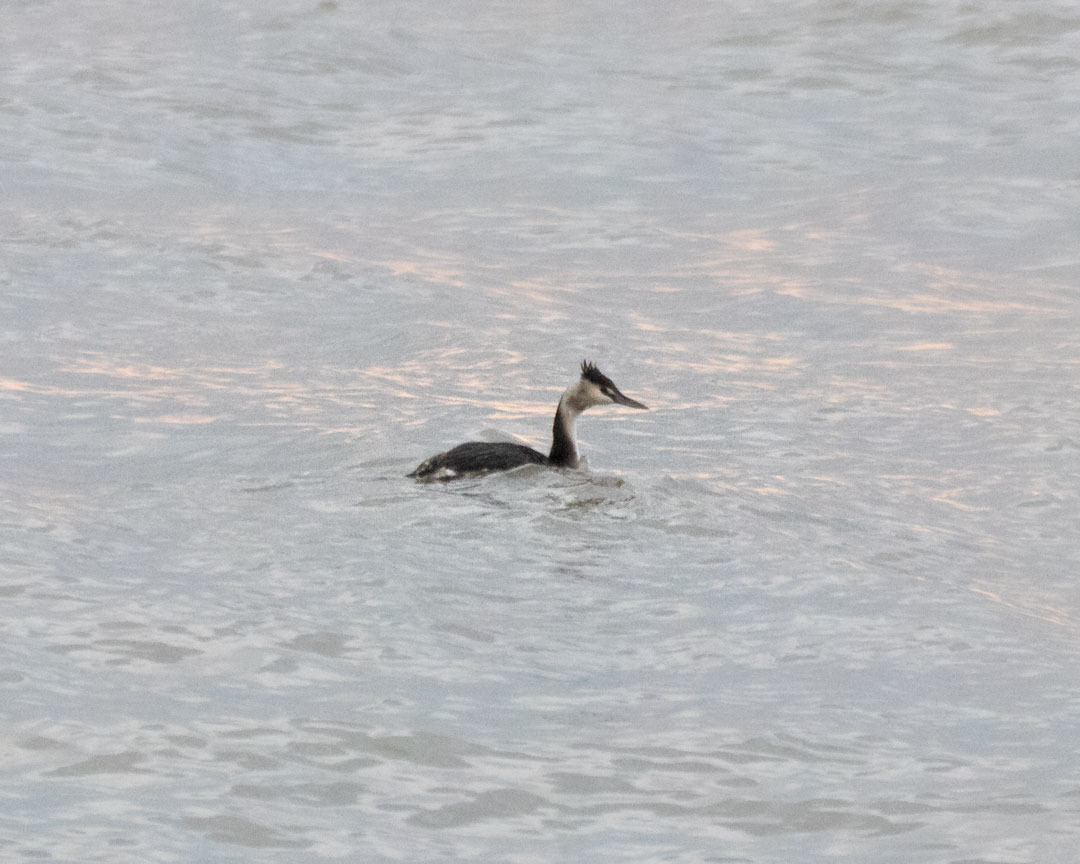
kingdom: Animalia
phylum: Chordata
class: Aves
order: Podicipediformes
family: Podicipedidae
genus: Podiceps
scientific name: Podiceps cristatus
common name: Great crested grebe
